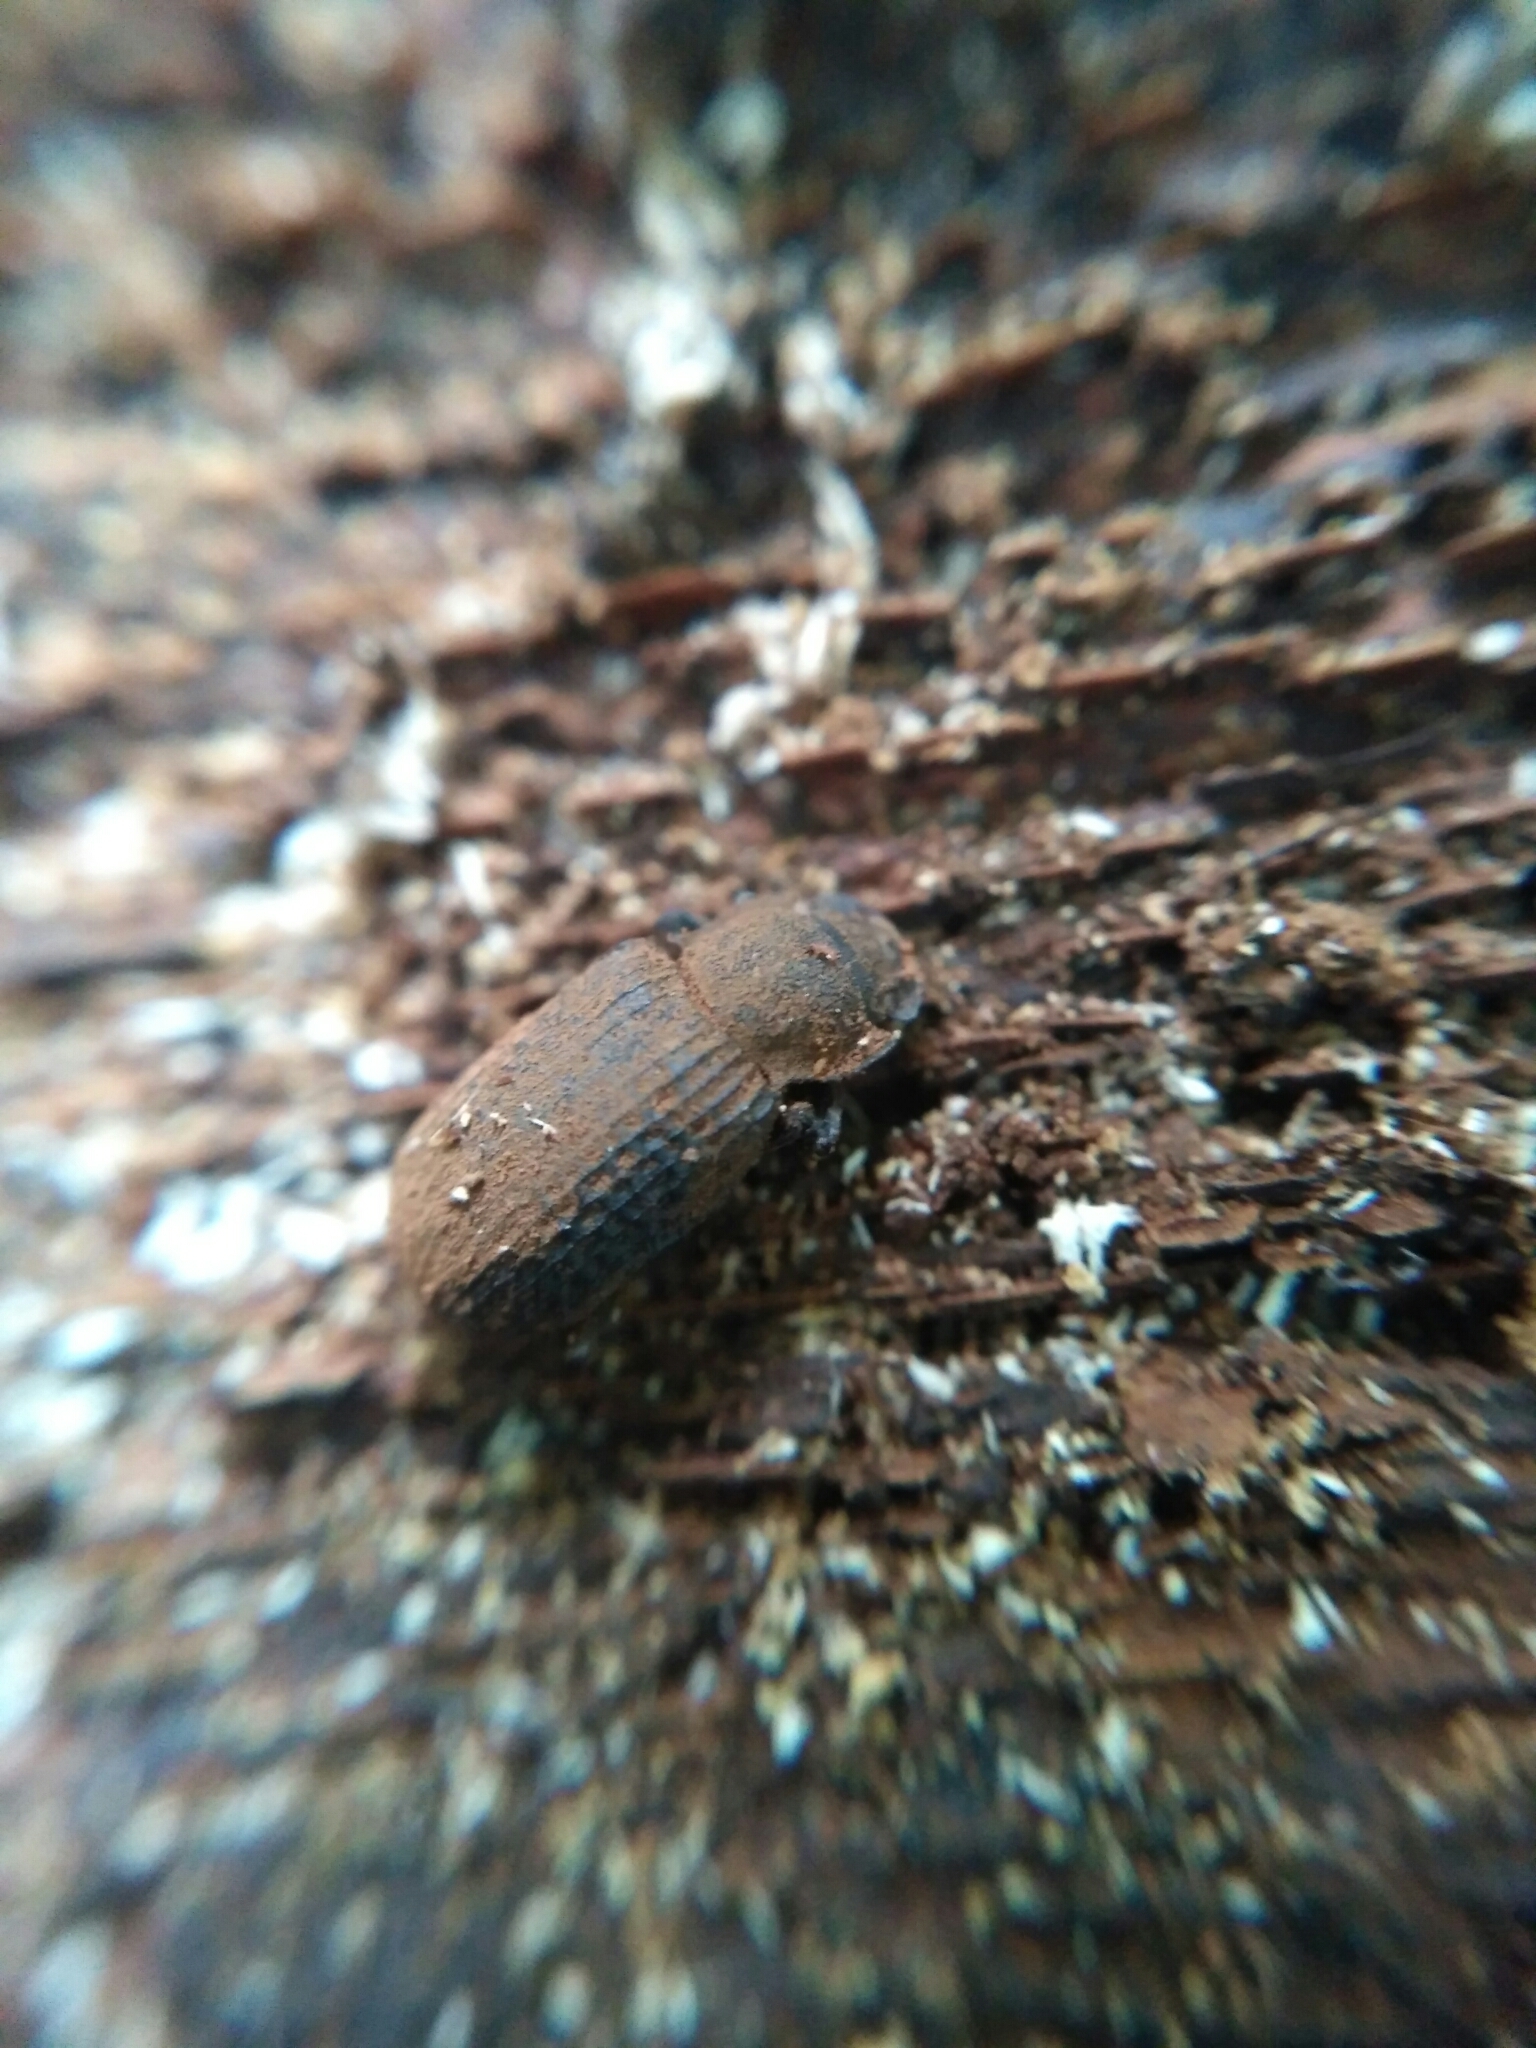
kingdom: Animalia
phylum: Arthropoda
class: Insecta
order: Coleoptera
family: Tenebrionidae
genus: Bolitophagus
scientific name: Bolitophagus reticulatus
